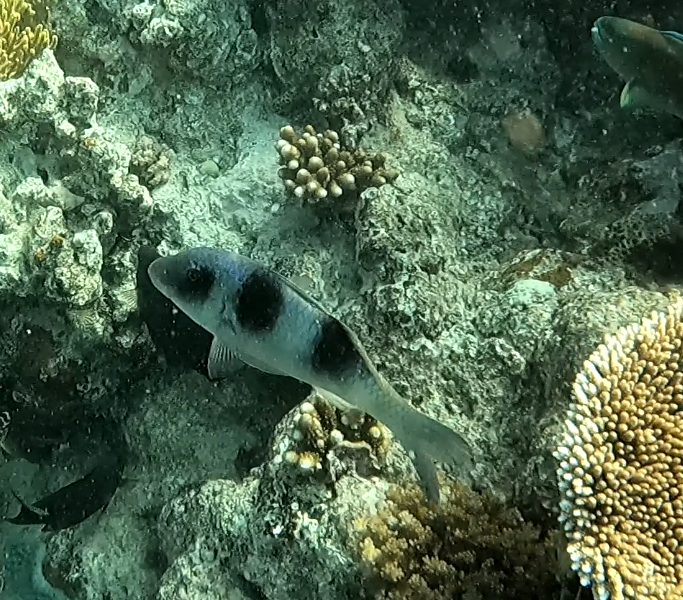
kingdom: Animalia
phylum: Chordata
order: Perciformes
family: Mullidae
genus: Parupeneus
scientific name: Parupeneus crassilabris
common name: Doublebar goatfish
